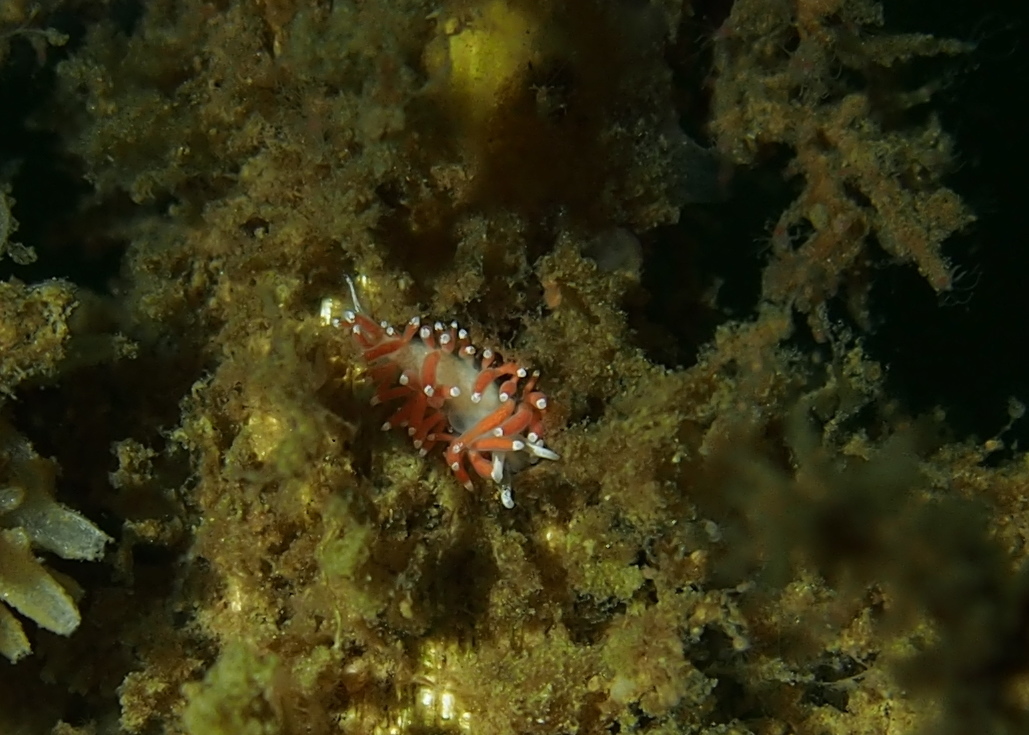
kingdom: Animalia
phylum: Mollusca
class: Gastropoda
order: Nudibranchia
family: Coryphellidae
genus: Coryphella
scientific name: Coryphella gracilis
